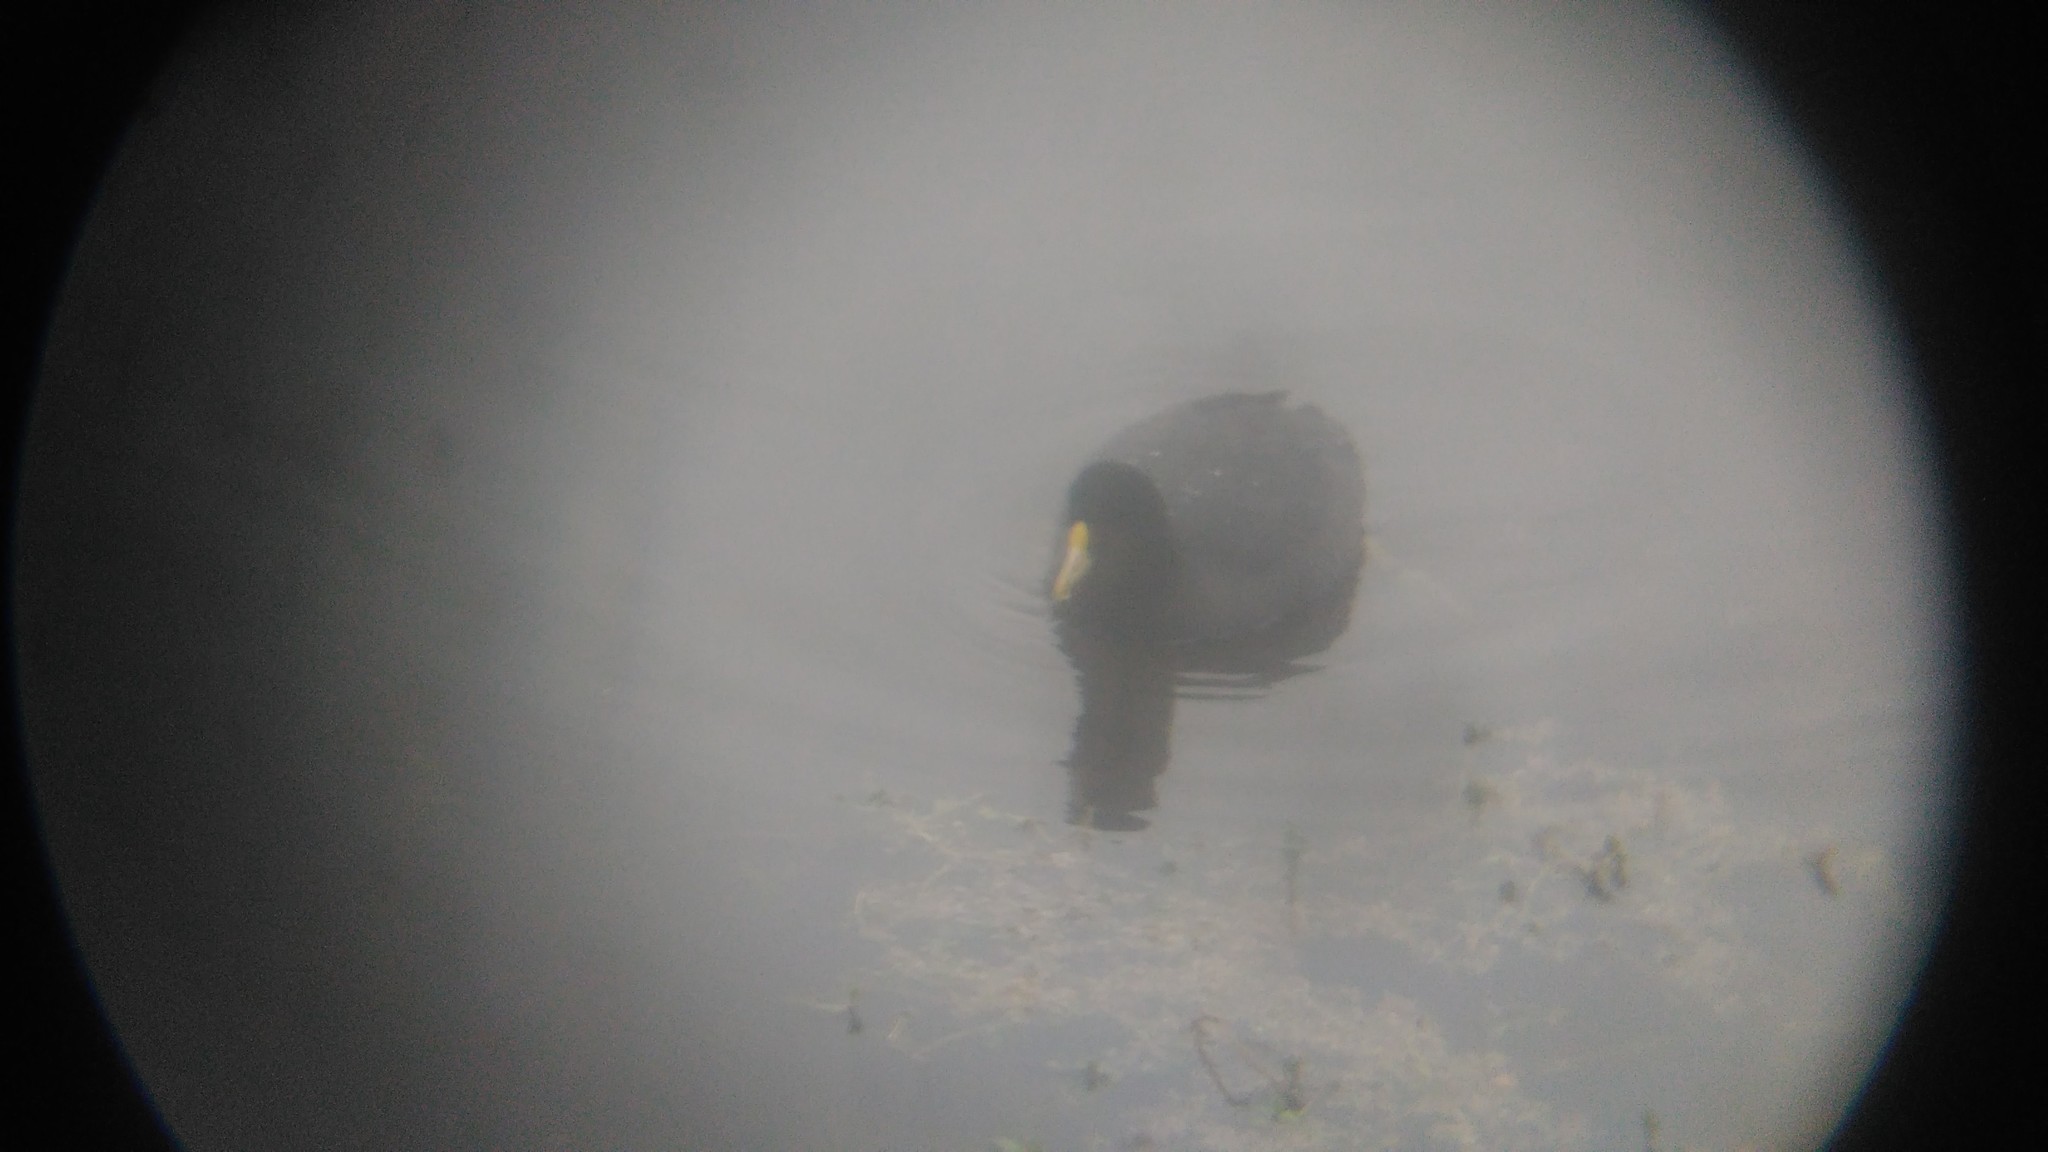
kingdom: Animalia
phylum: Chordata
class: Aves
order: Gruiformes
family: Rallidae
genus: Fulica
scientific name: Fulica leucoptera
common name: White-winged coot
